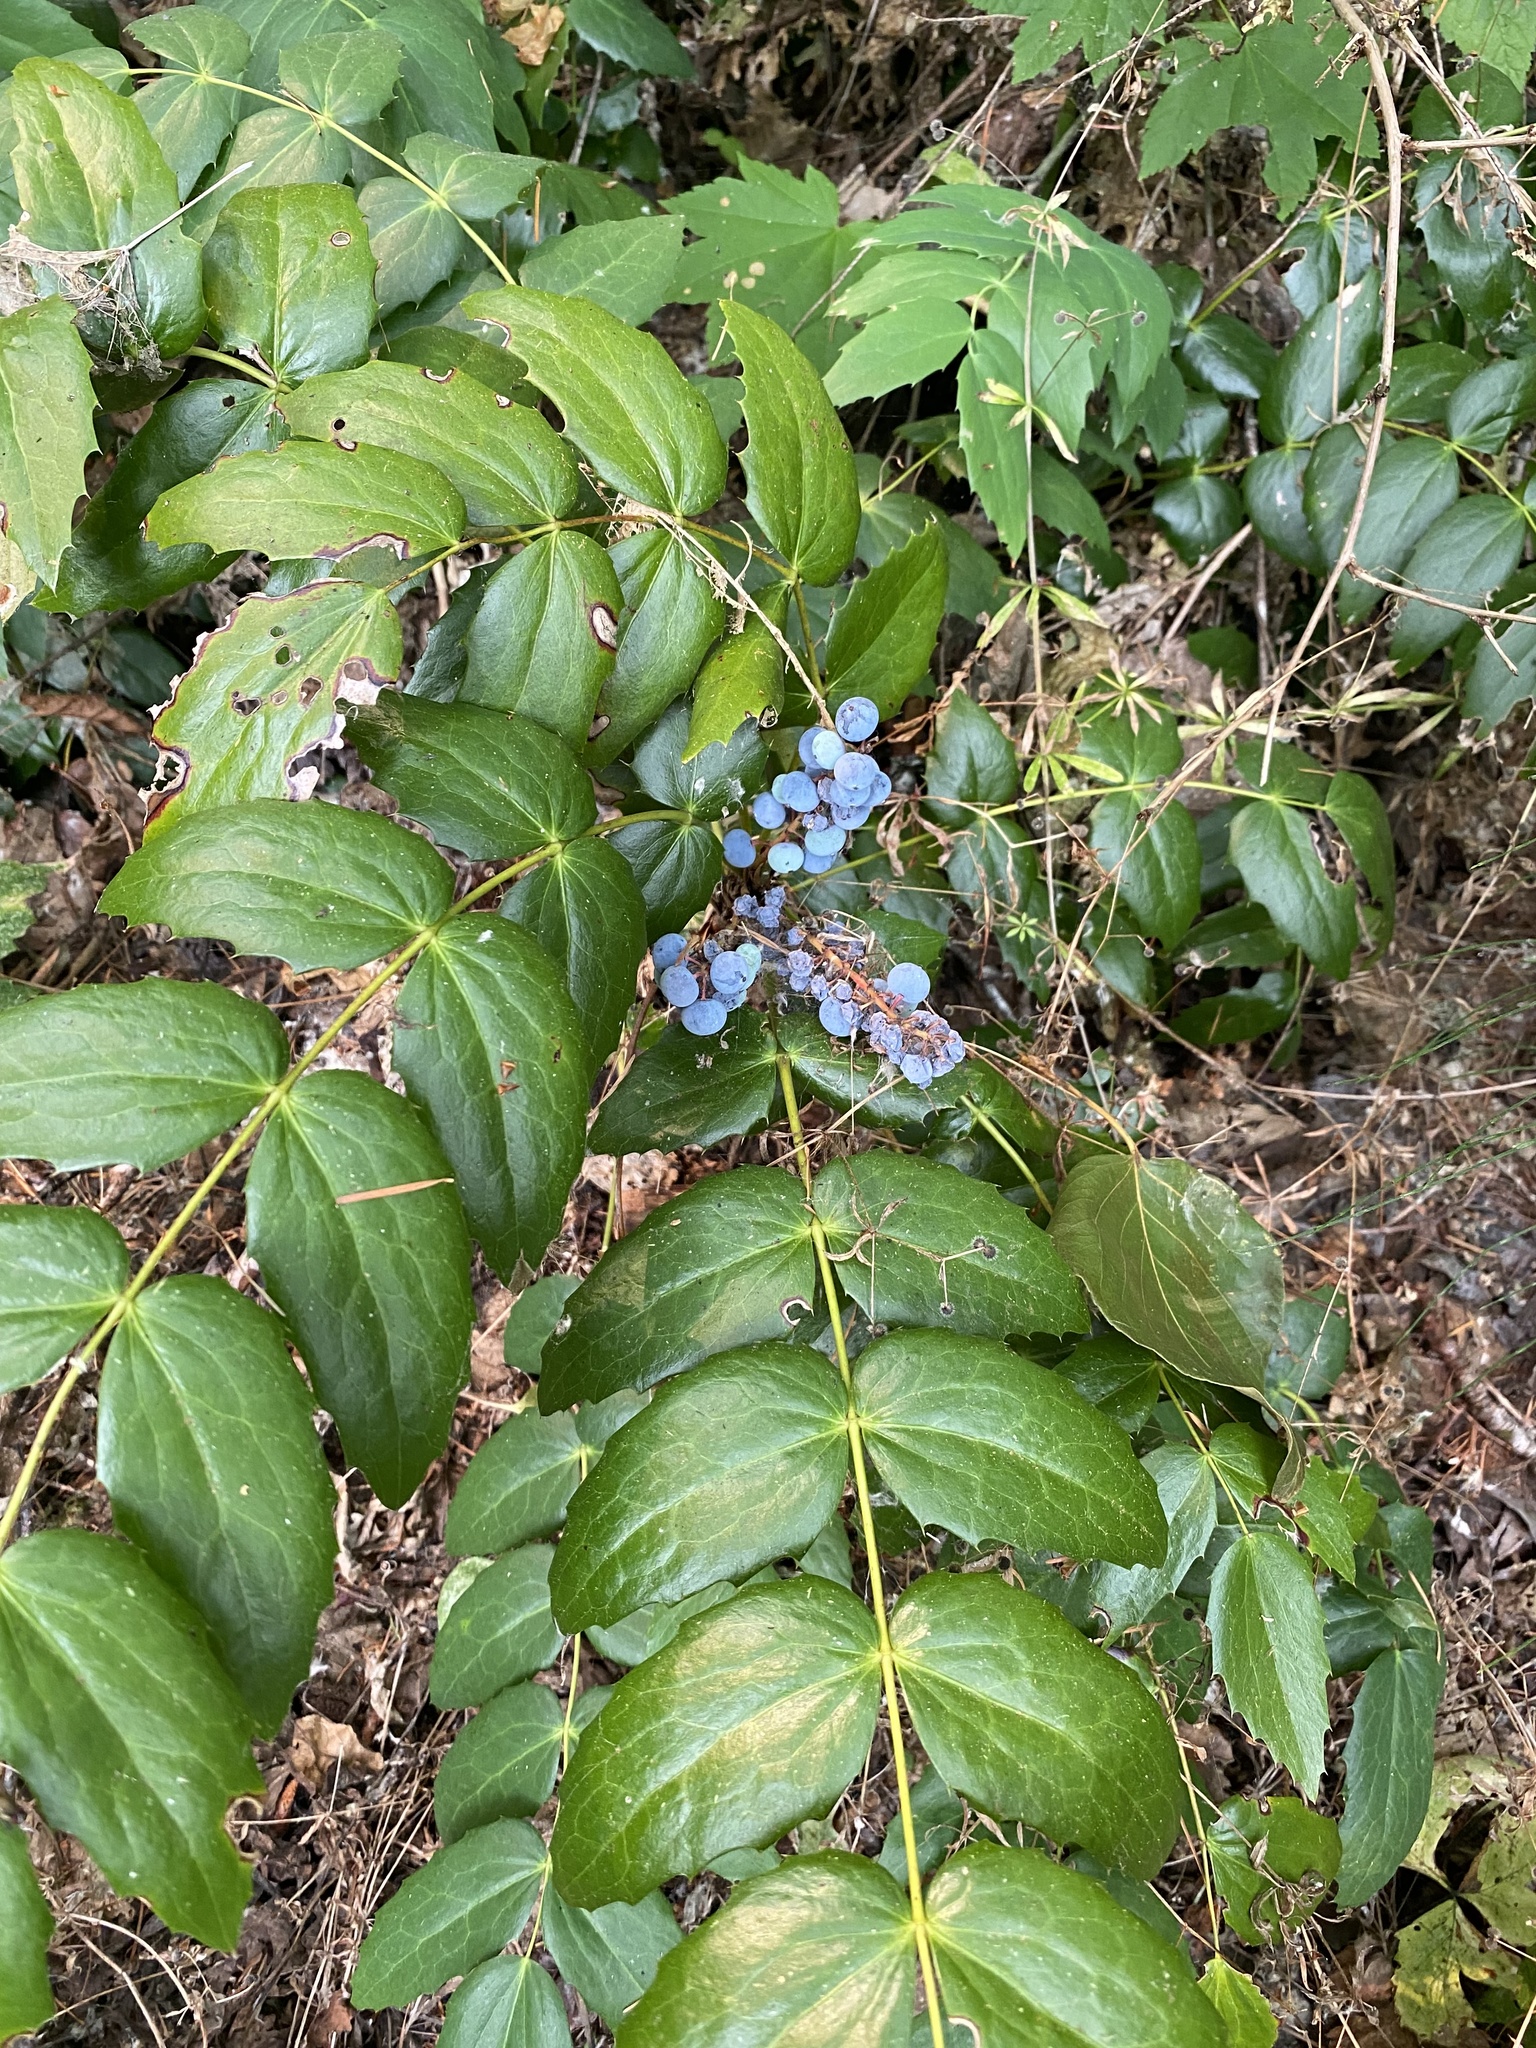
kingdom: Plantae
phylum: Tracheophyta
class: Magnoliopsida
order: Ranunculales
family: Berberidaceae
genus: Mahonia
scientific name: Mahonia nervosa
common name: Cascade oregon-grape
